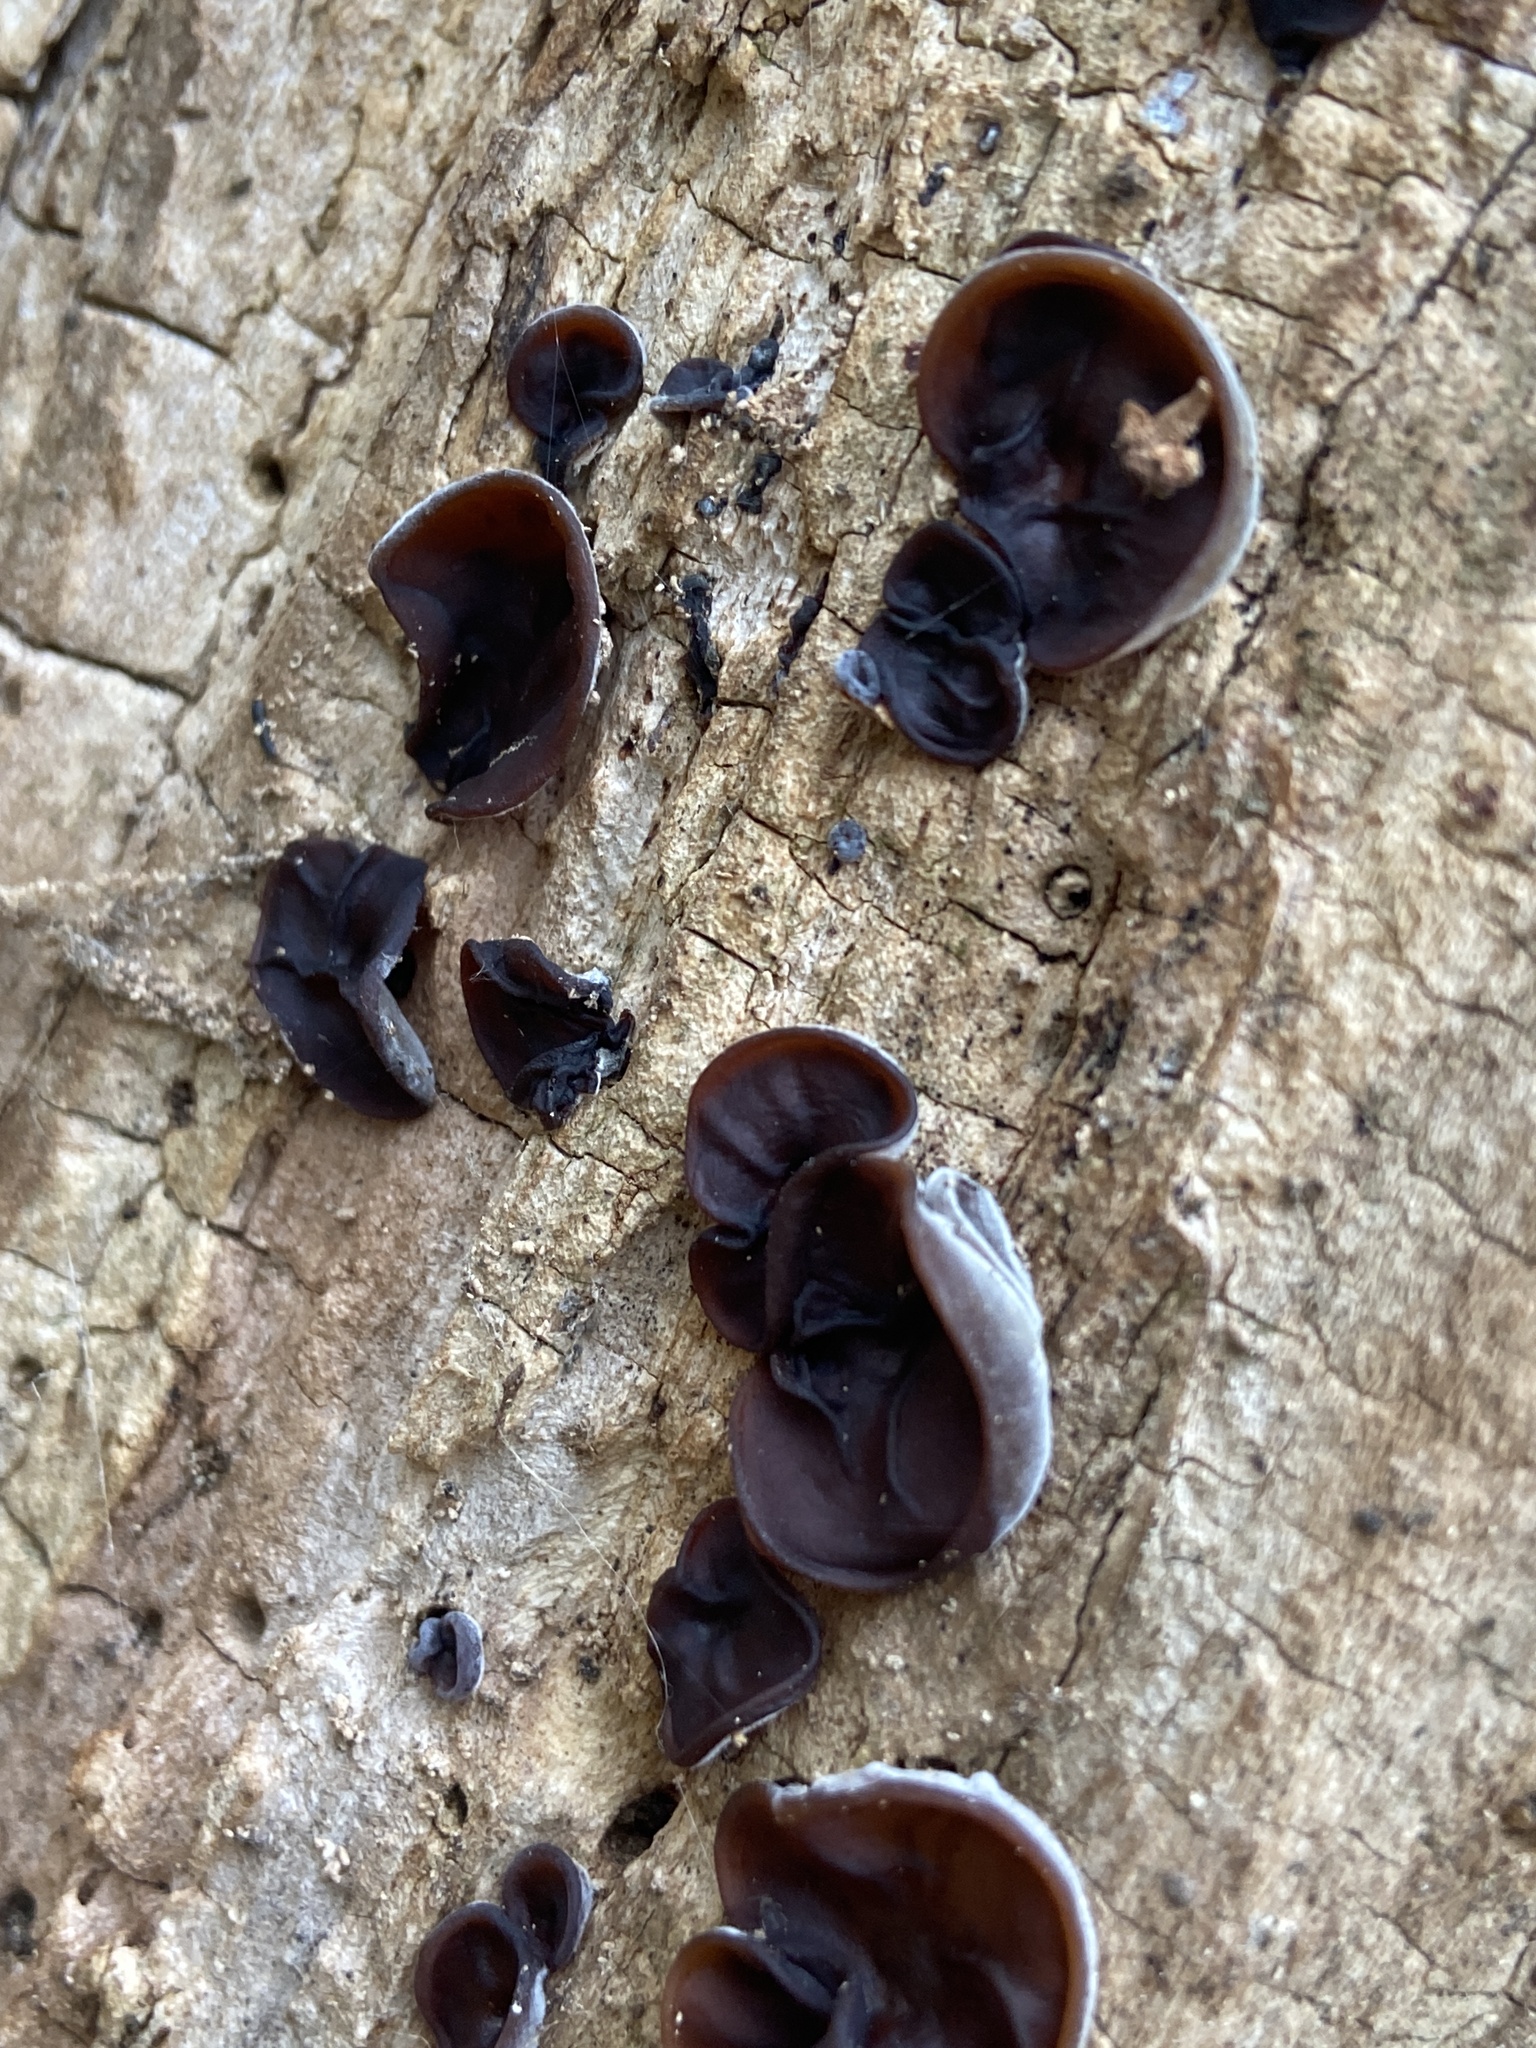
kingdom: Fungi
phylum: Basidiomycota
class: Agaricomycetes
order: Auriculariales
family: Auriculariaceae
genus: Auricularia
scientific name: Auricularia auricula-judae
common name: Jelly ear
